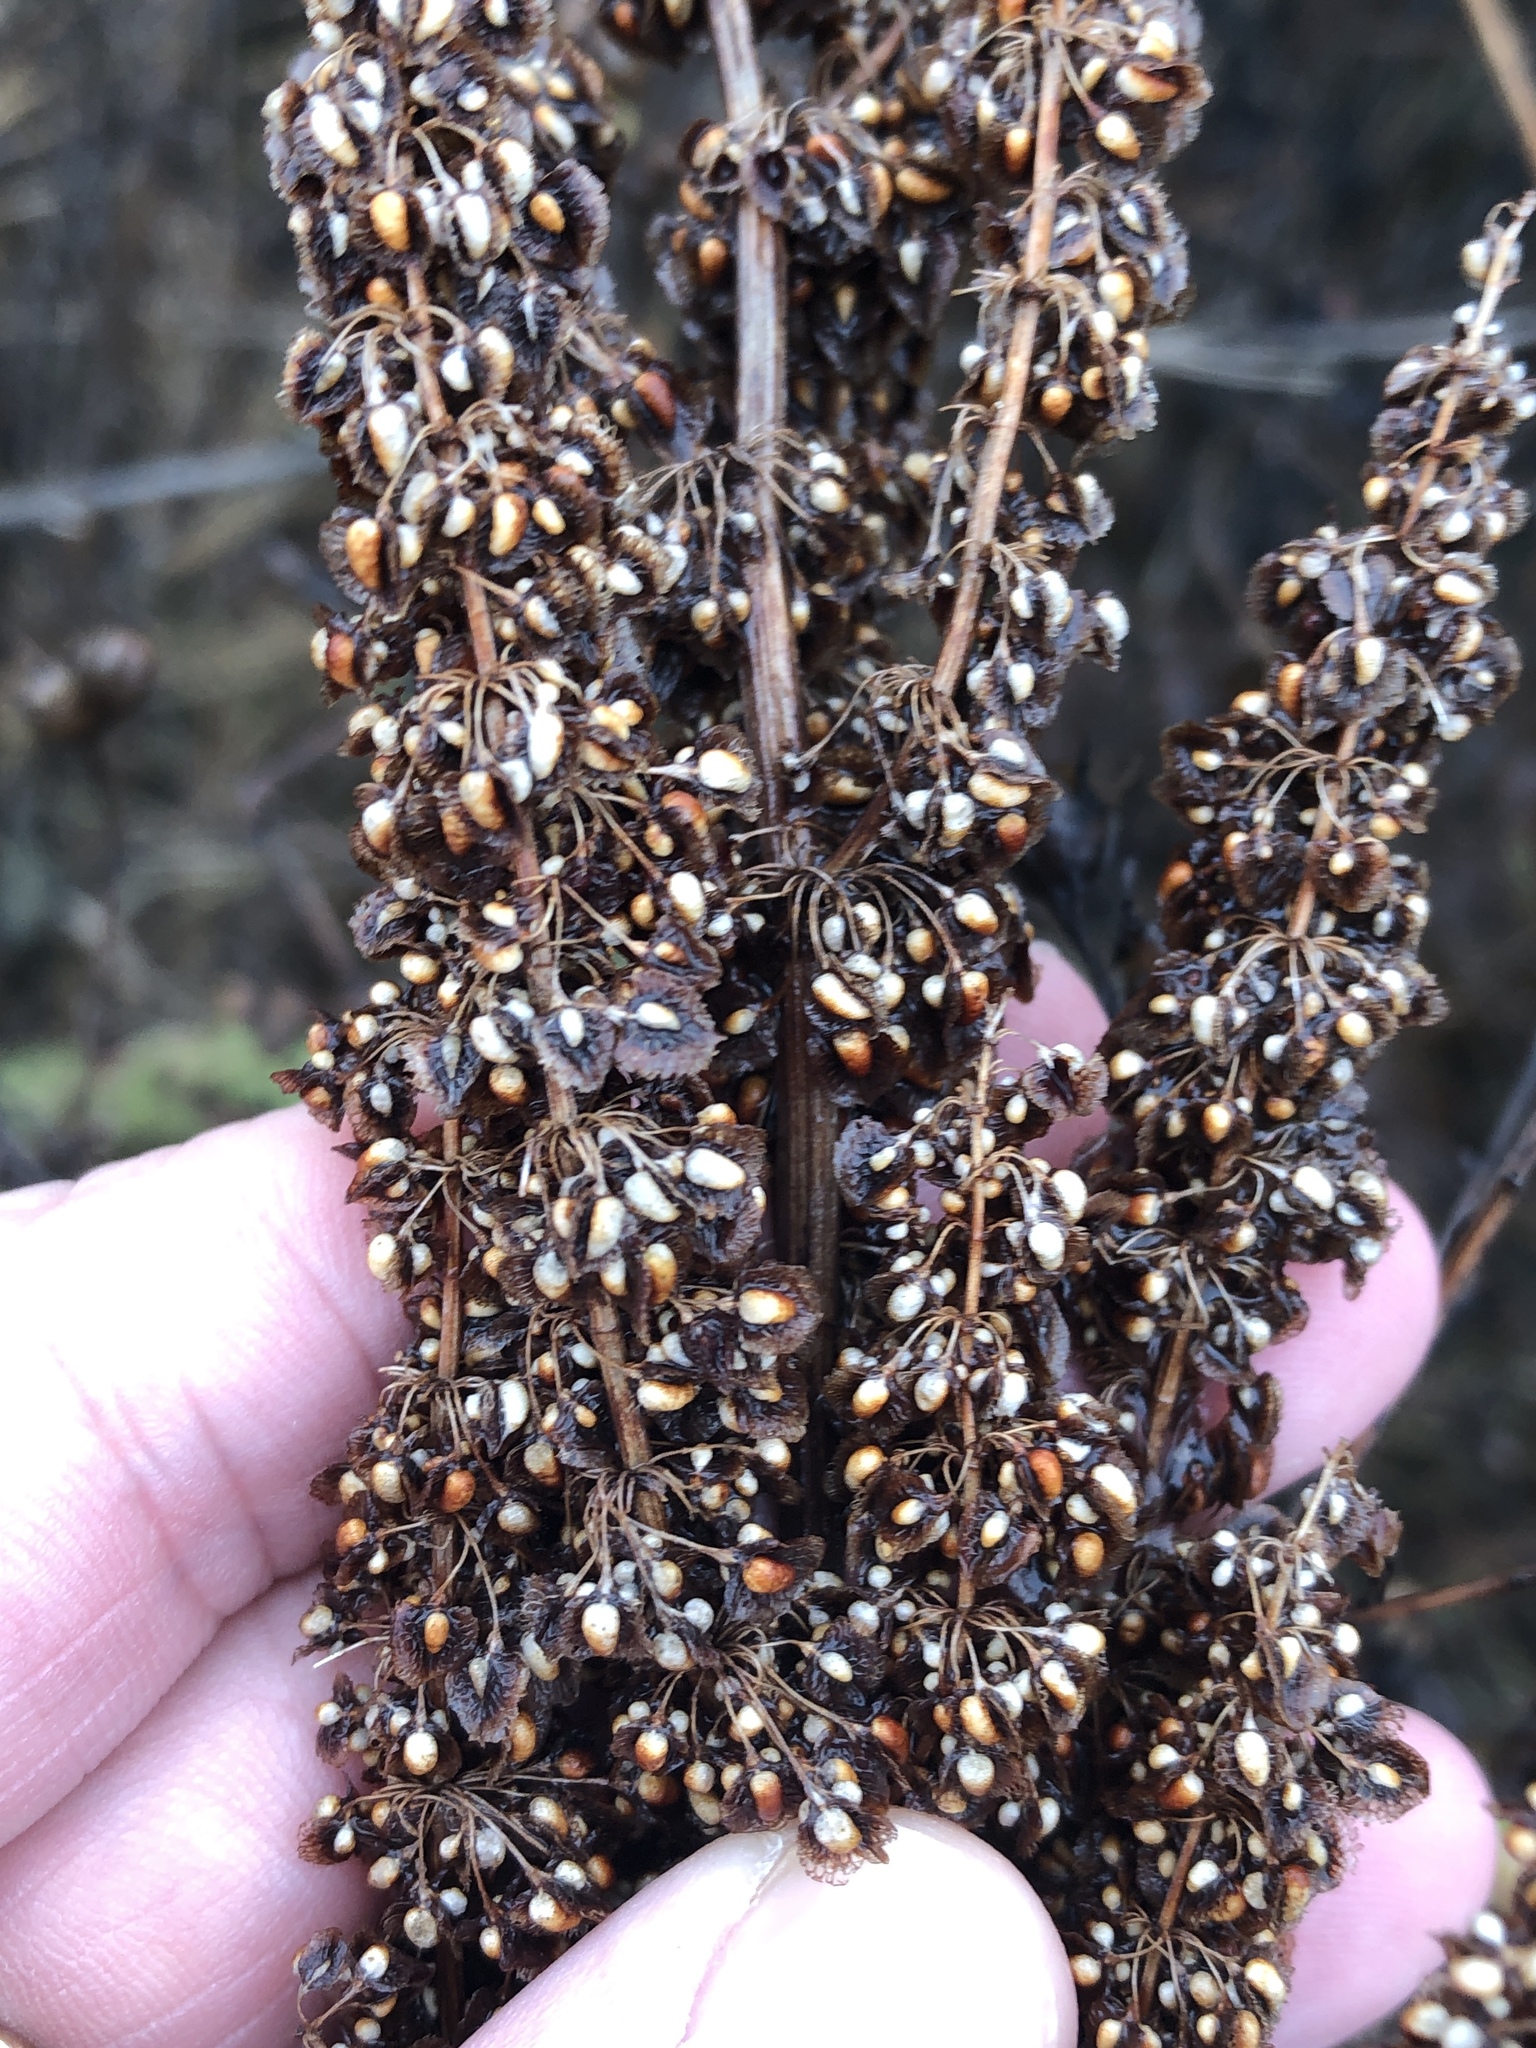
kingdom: Plantae
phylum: Tracheophyta
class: Magnoliopsida
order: Caryophyllales
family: Polygonaceae
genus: Rumex
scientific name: Rumex crispus
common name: Curled dock
